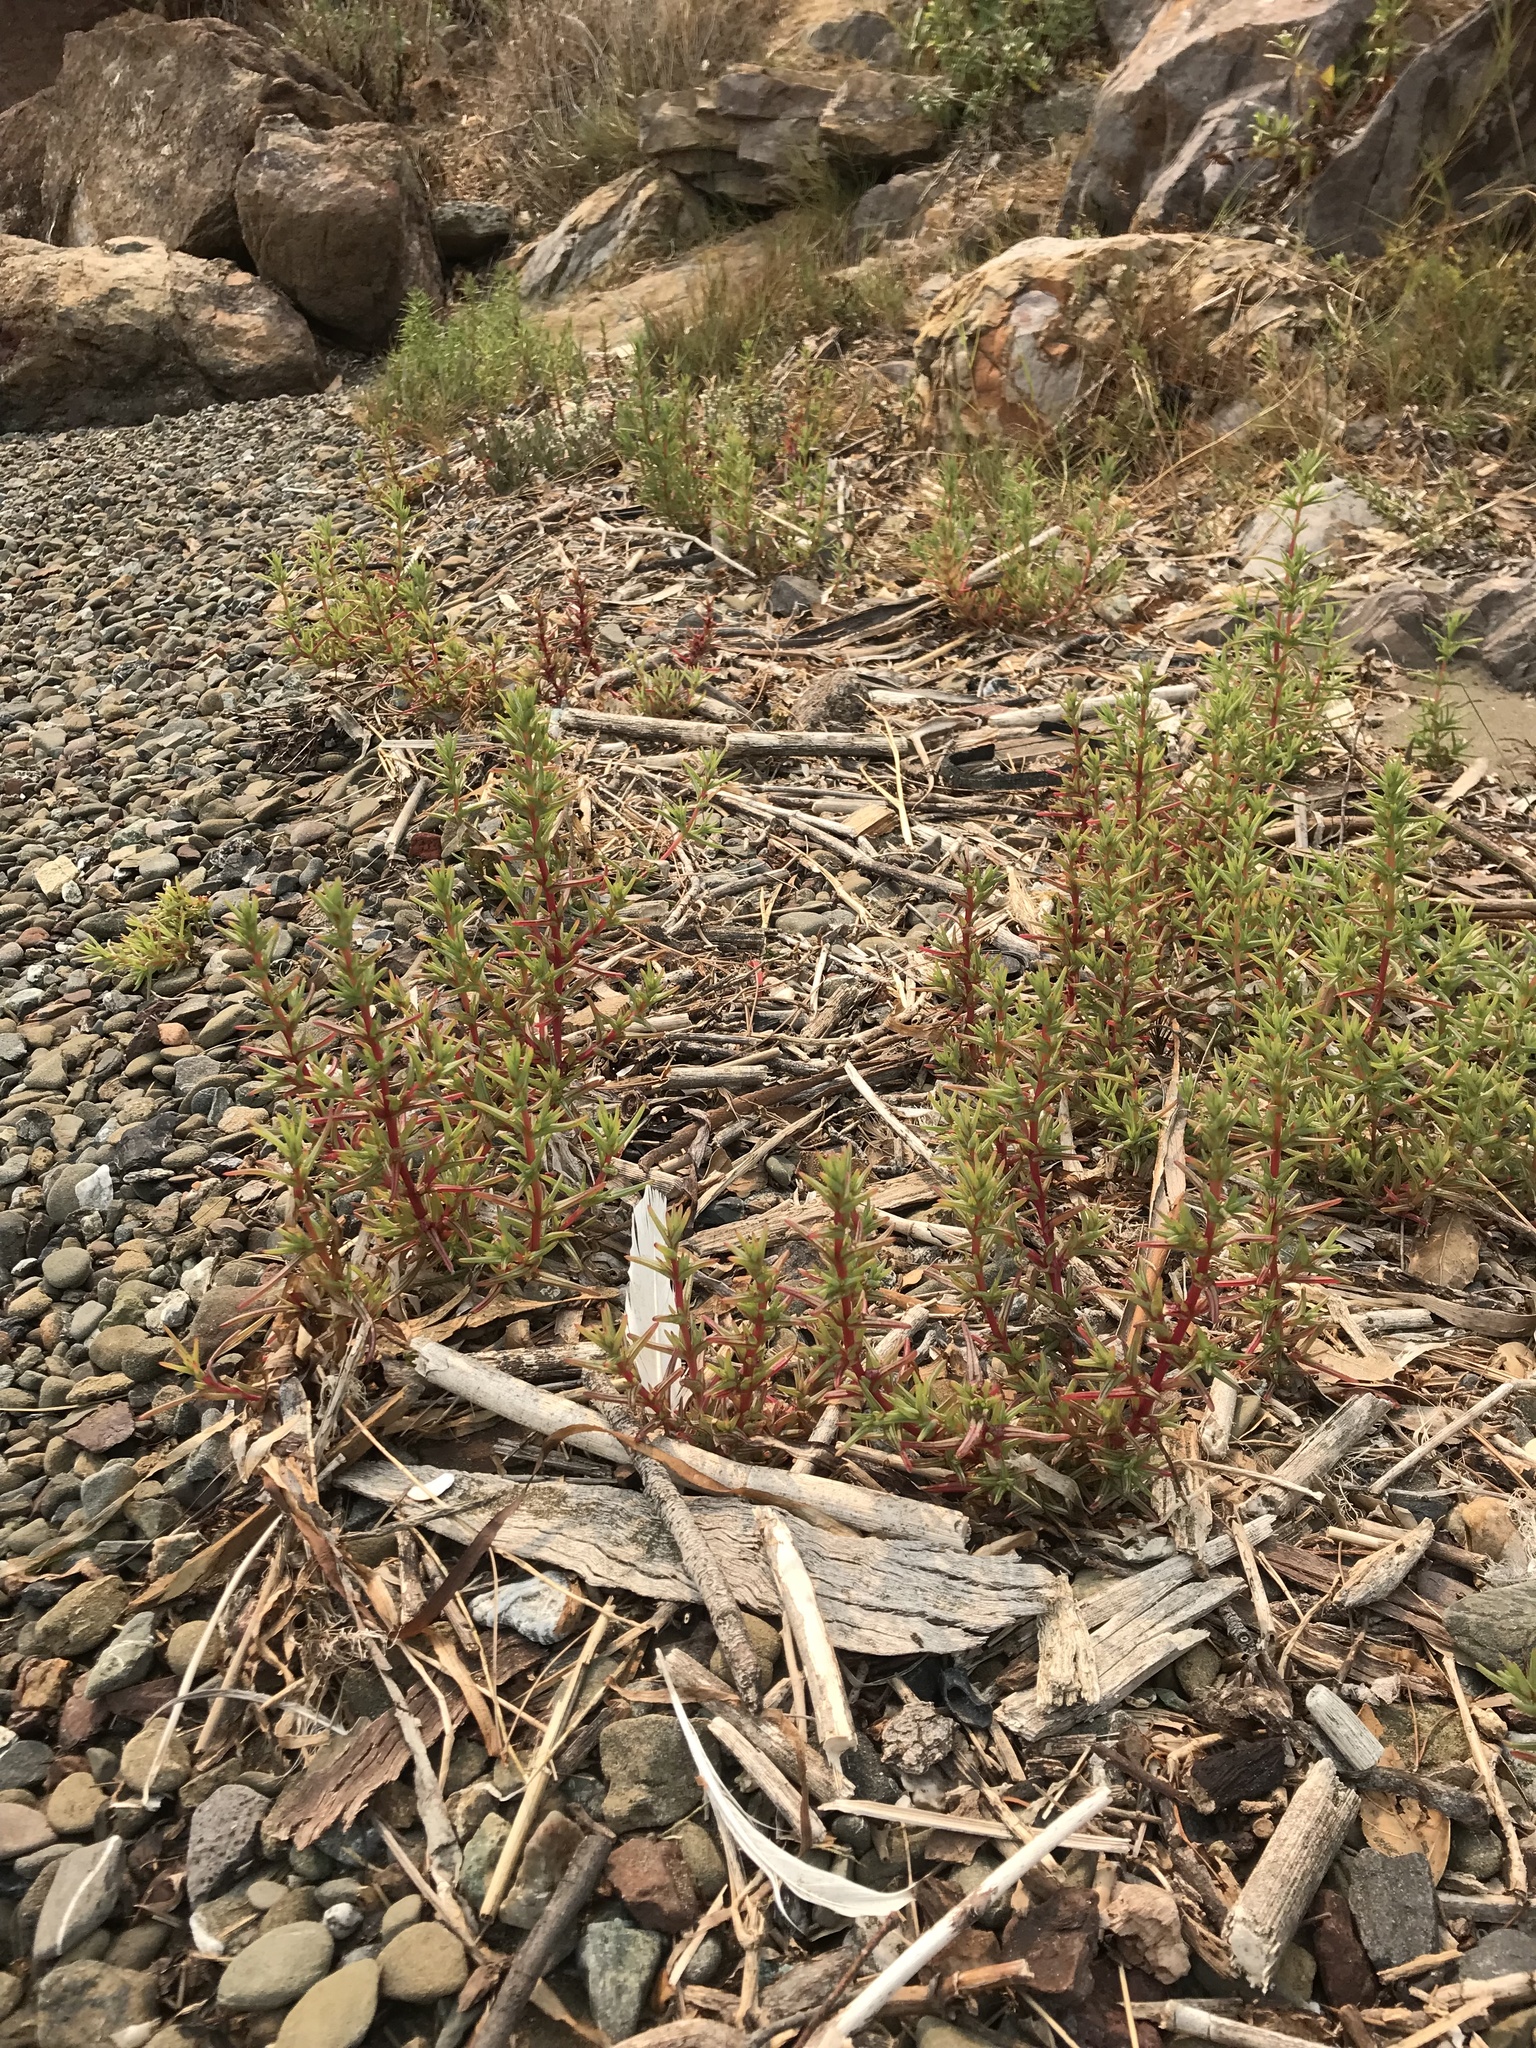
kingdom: Plantae
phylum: Tracheophyta
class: Magnoliopsida
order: Caryophyllales
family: Amaranthaceae
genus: Salsola
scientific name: Salsola soda
